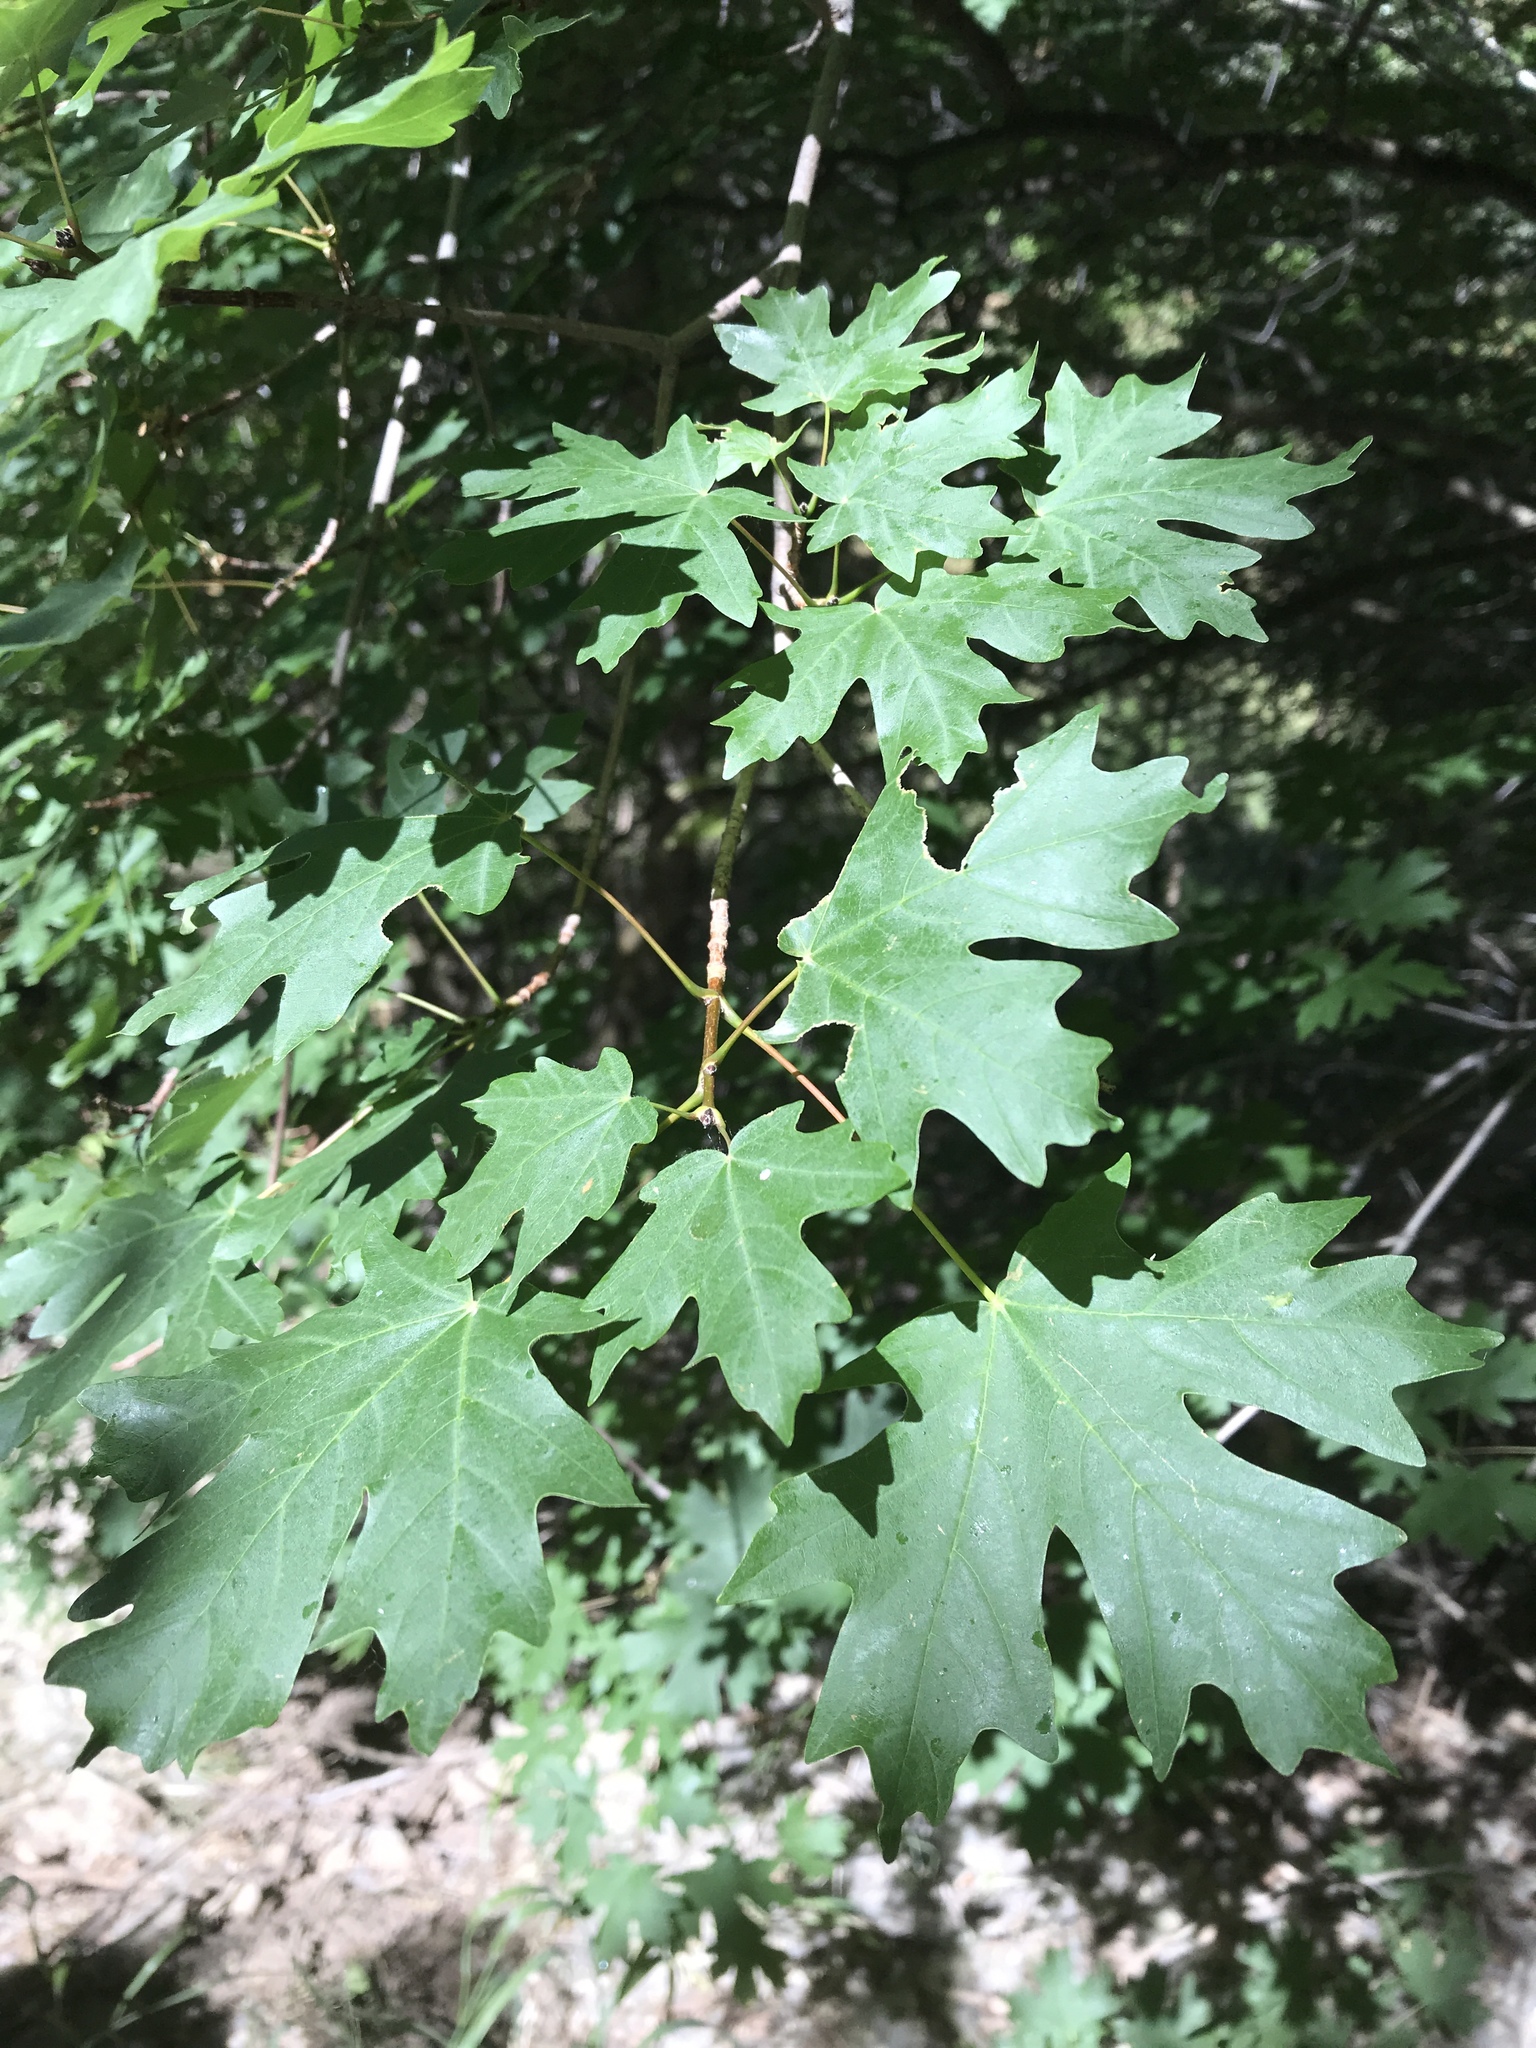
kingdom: Plantae
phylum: Tracheophyta
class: Magnoliopsida
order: Sapindales
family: Sapindaceae
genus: Acer
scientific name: Acer grandidentatum
